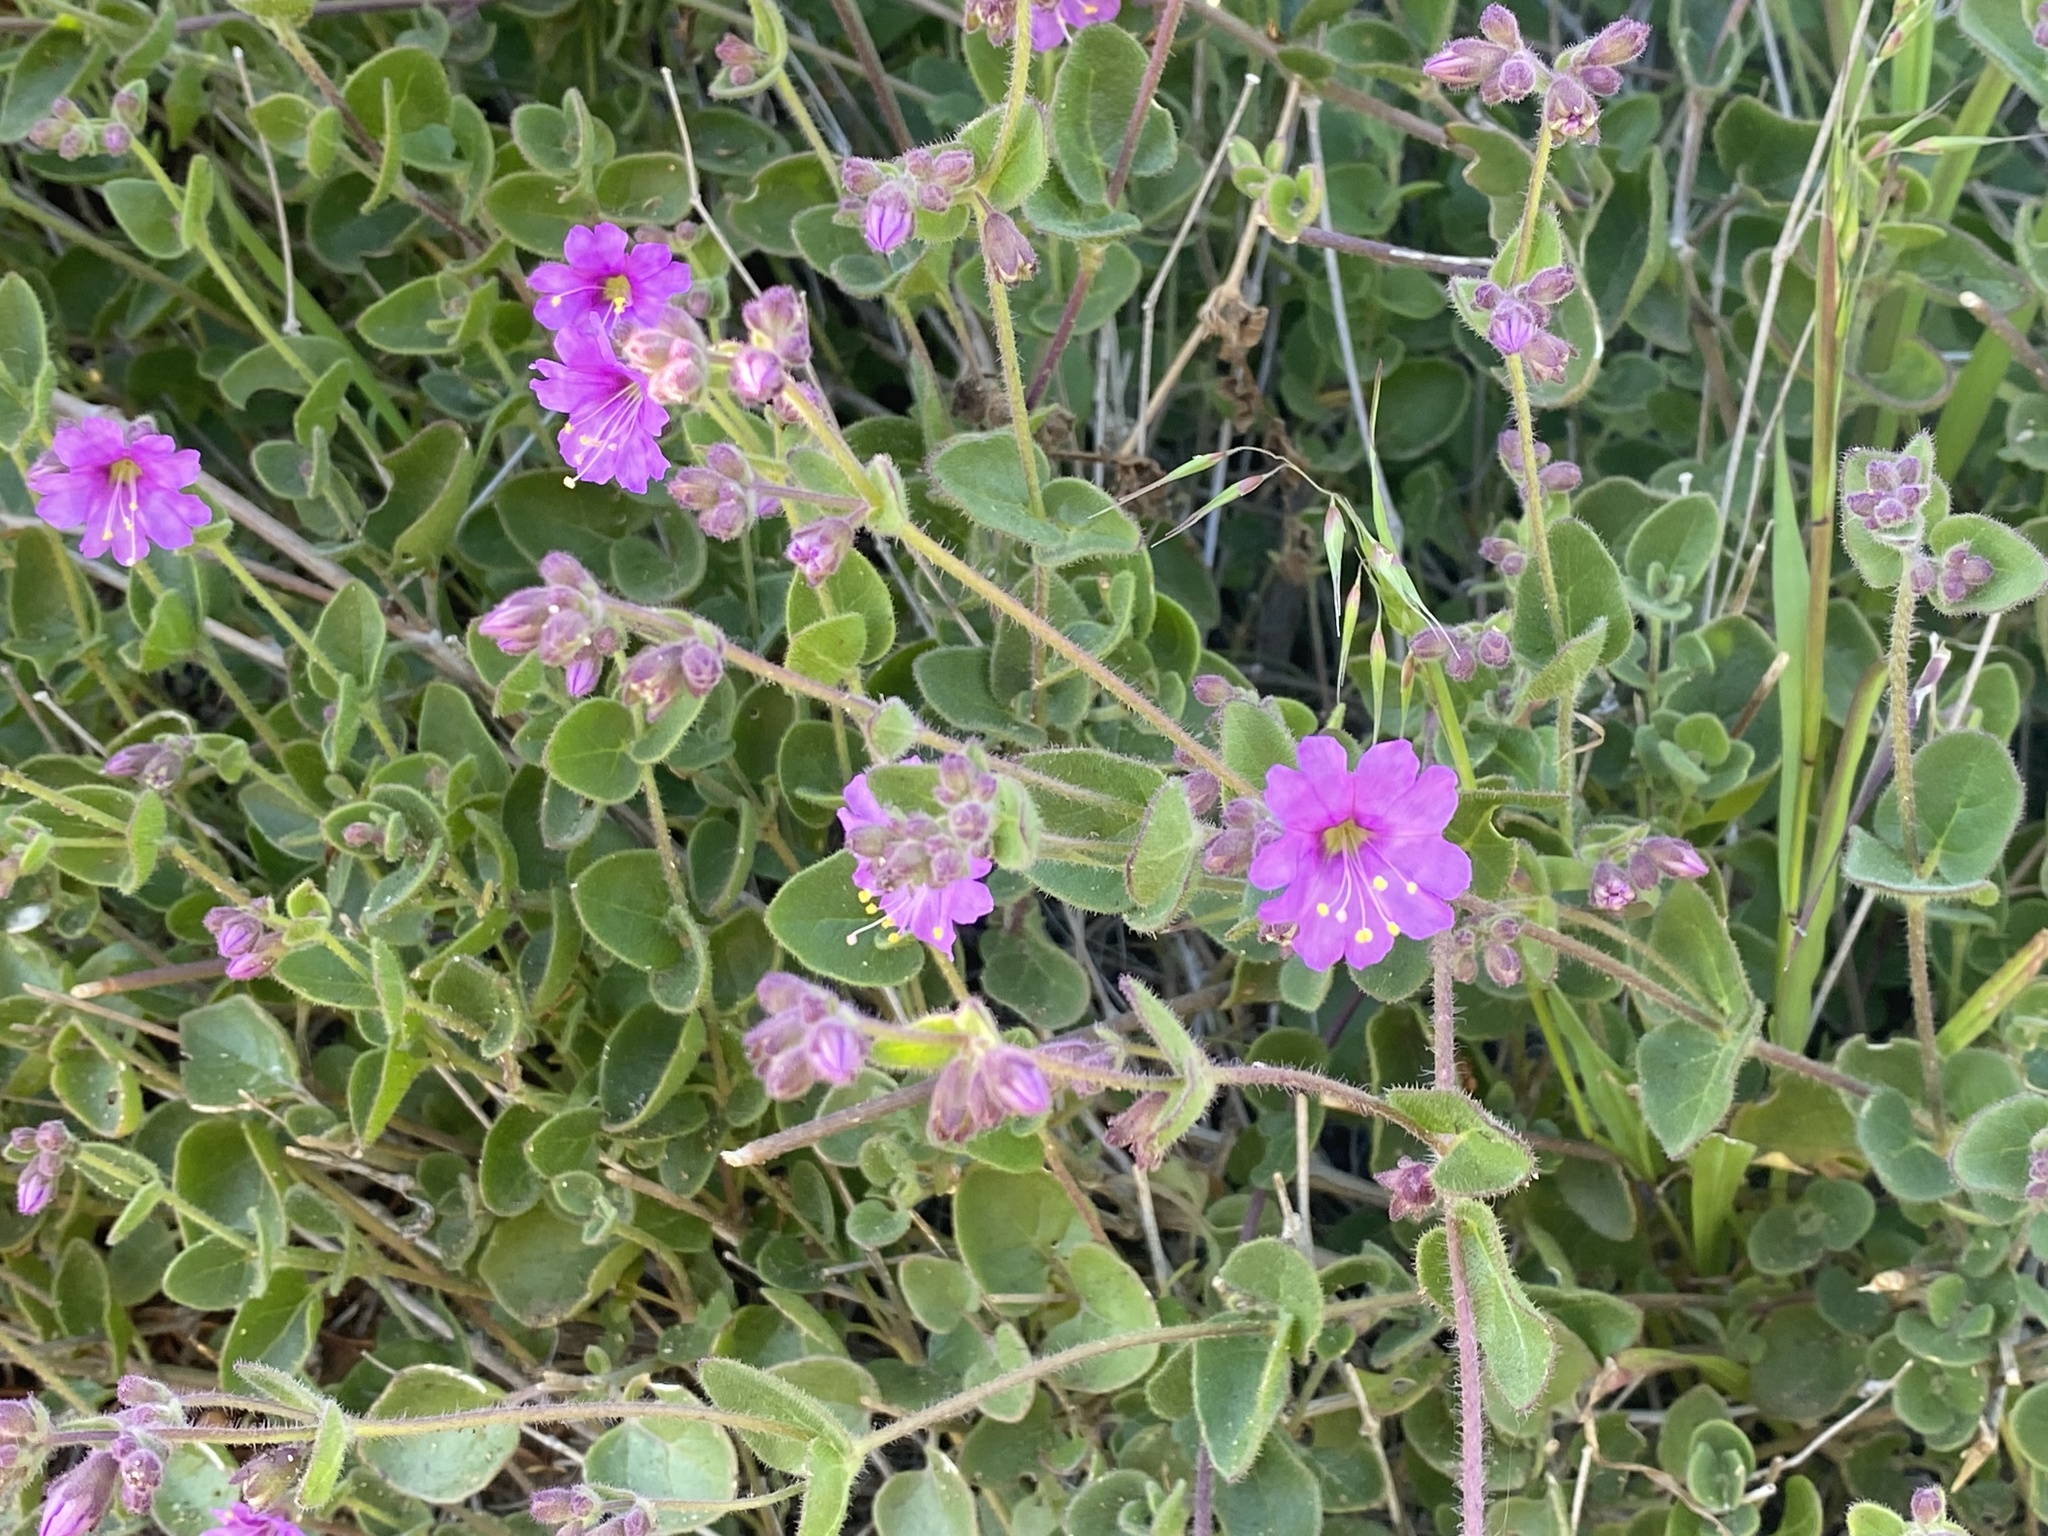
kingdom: Plantae
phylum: Tracheophyta
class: Magnoliopsida
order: Caryophyllales
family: Nyctaginaceae
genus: Mirabilis
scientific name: Mirabilis laevis
